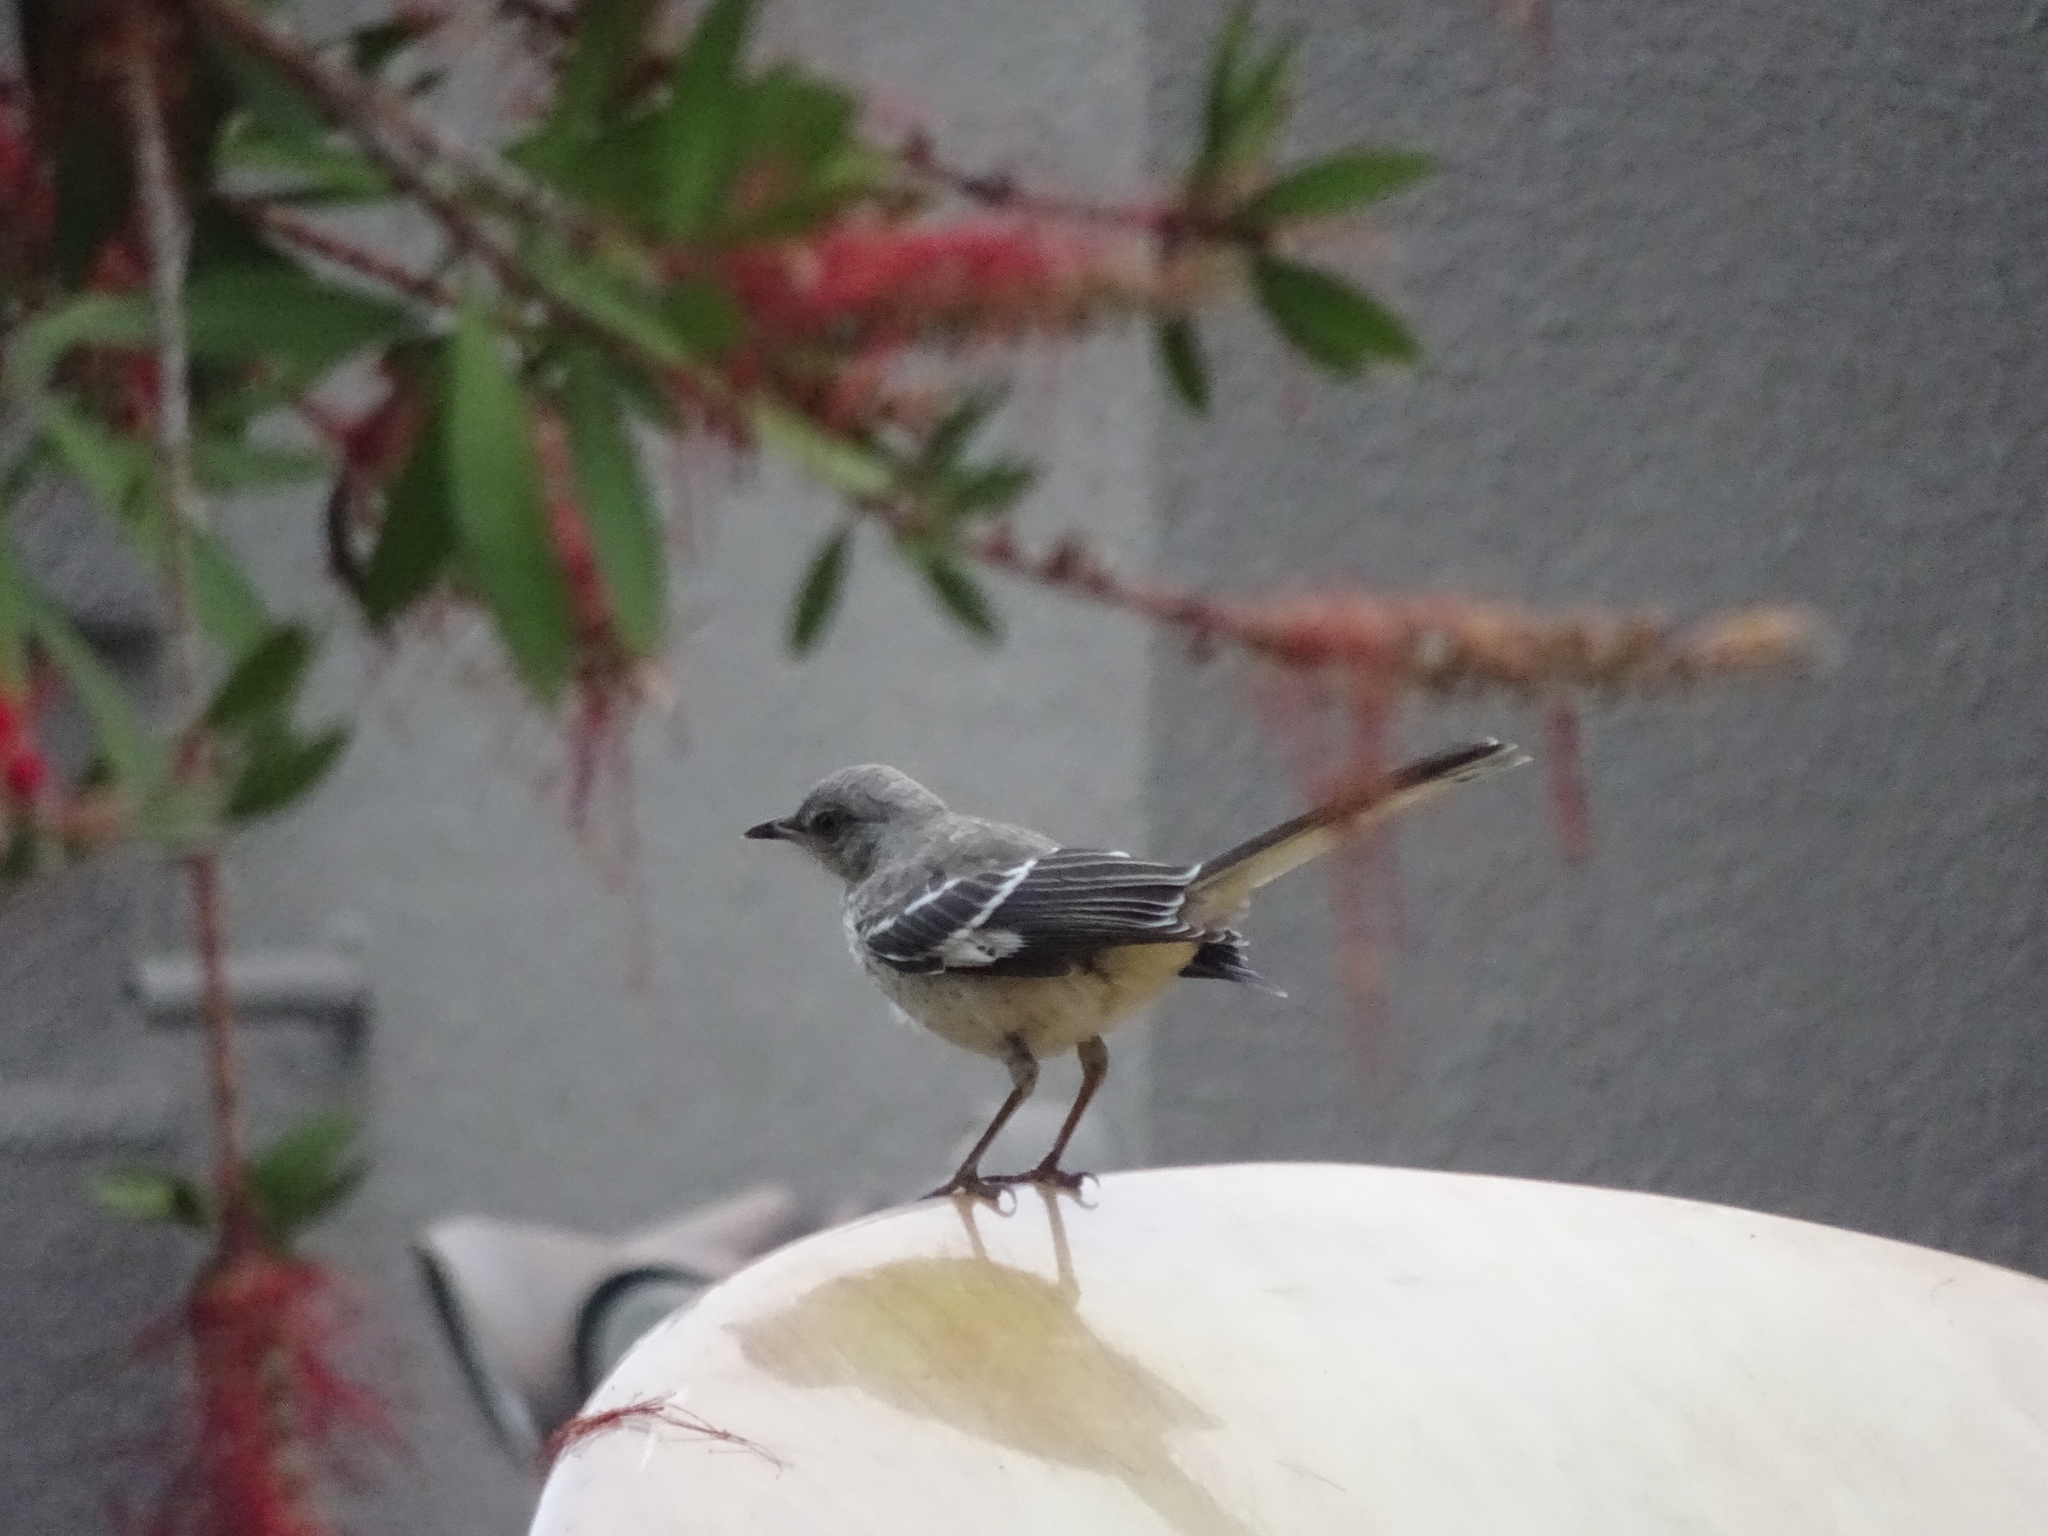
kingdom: Animalia
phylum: Chordata
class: Aves
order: Passeriformes
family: Mimidae
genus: Mimus
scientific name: Mimus polyglottos
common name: Northern mockingbird
